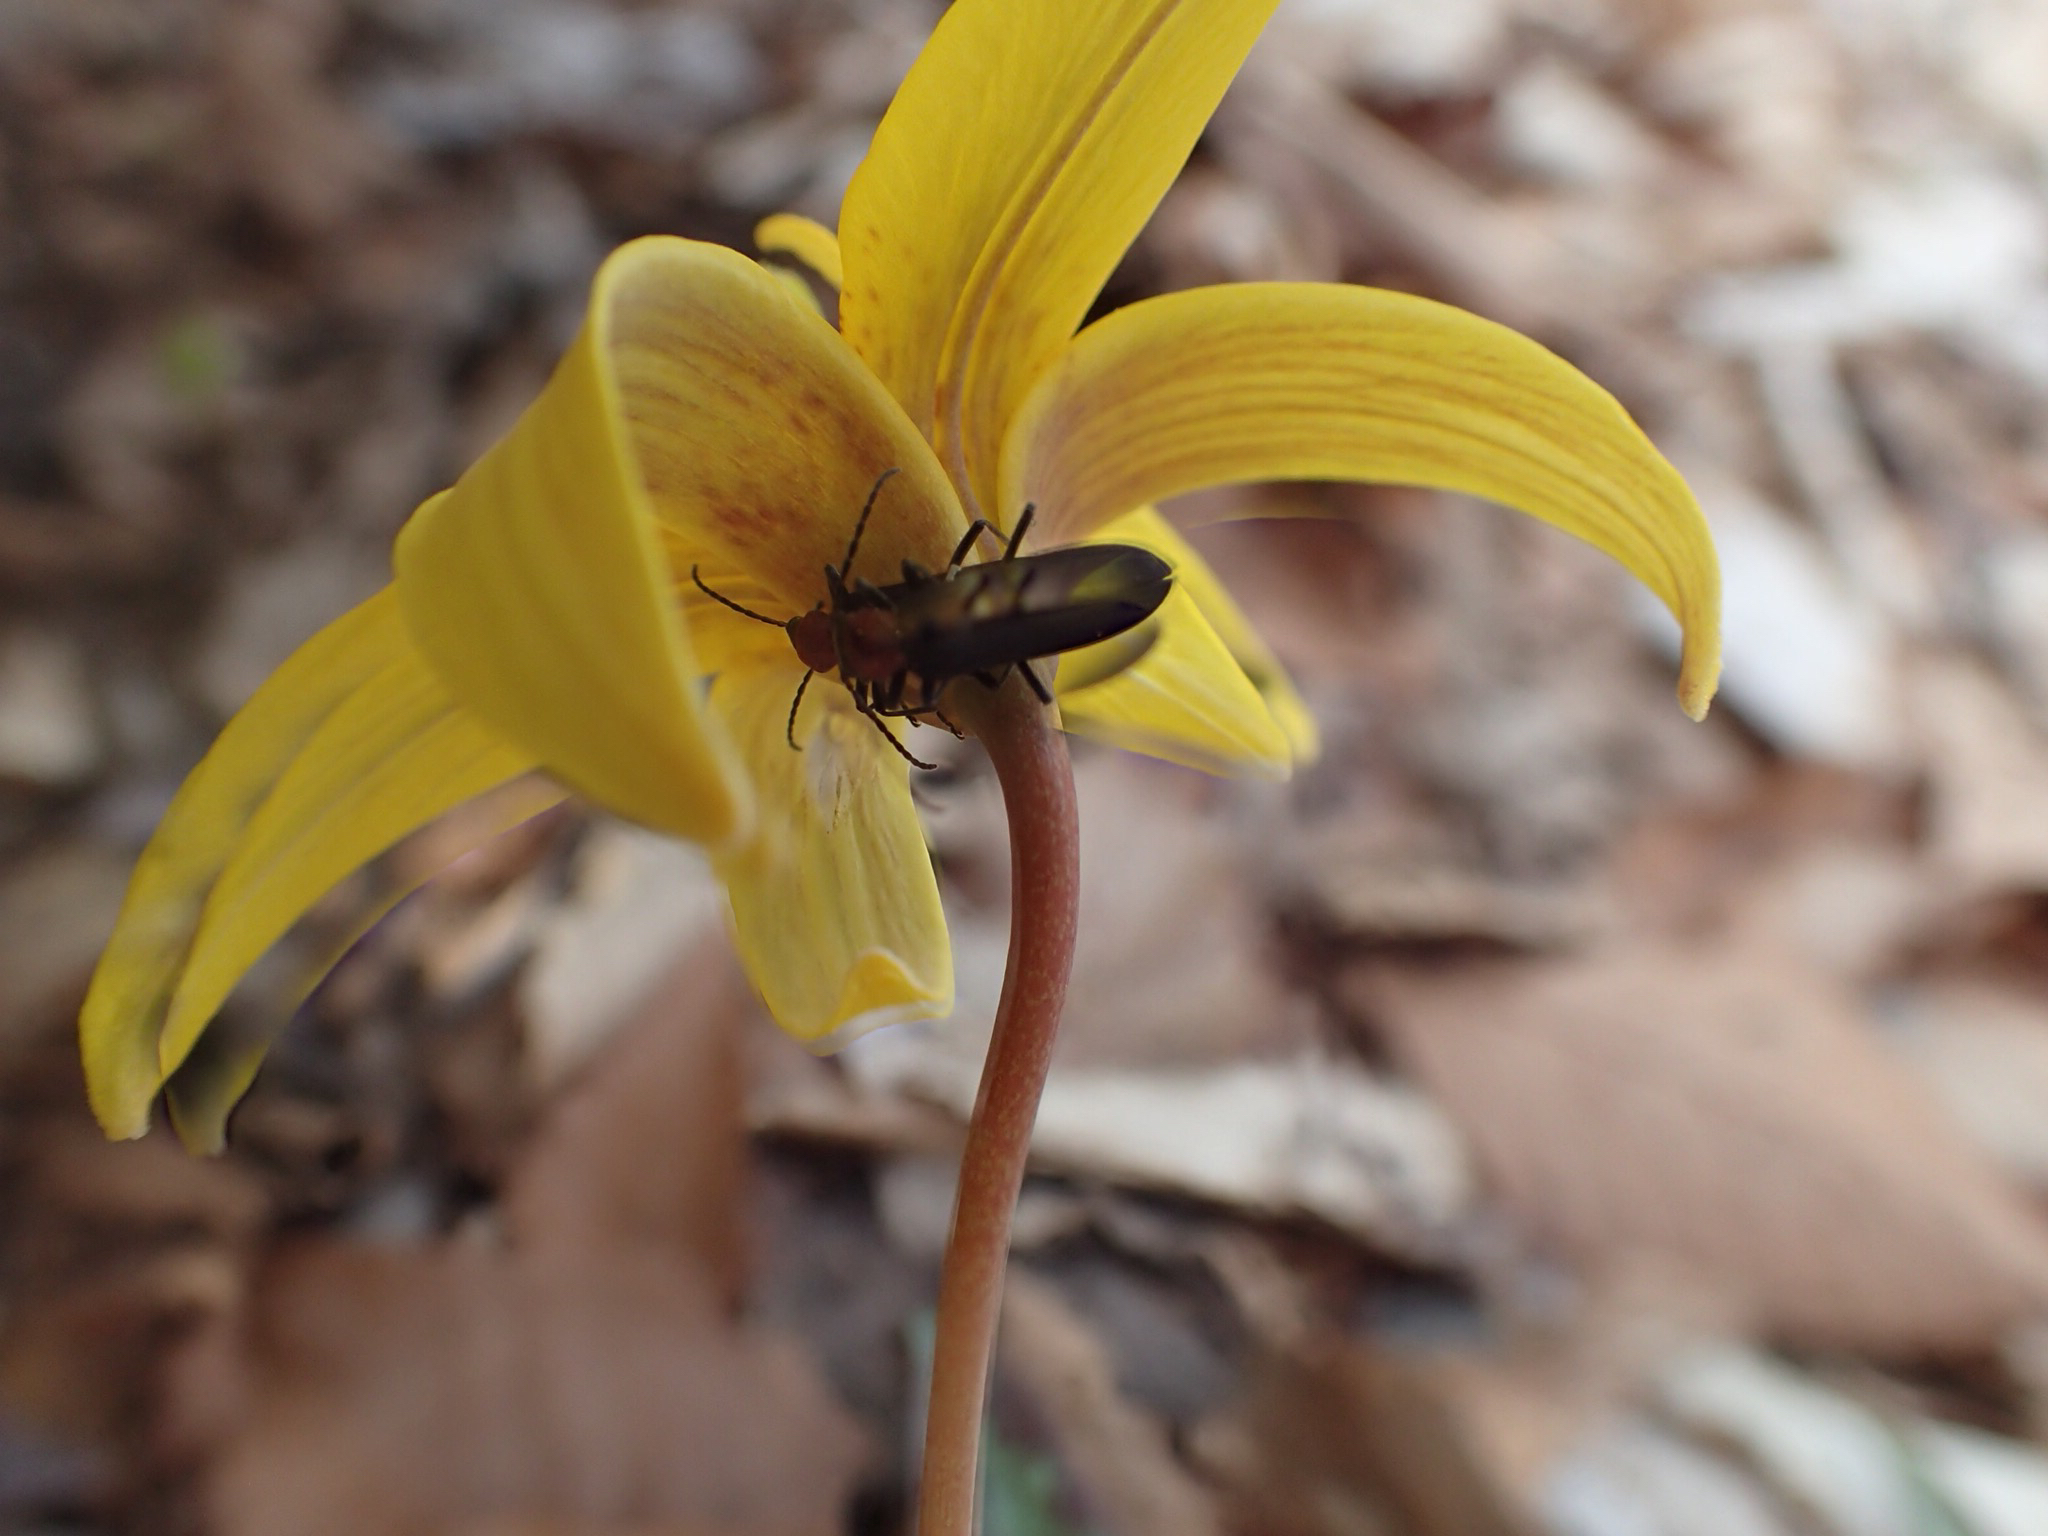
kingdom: Plantae
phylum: Tracheophyta
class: Liliopsida
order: Liliales
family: Liliaceae
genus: Erythronium
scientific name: Erythronium americanum
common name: Yellow adder's-tongue
